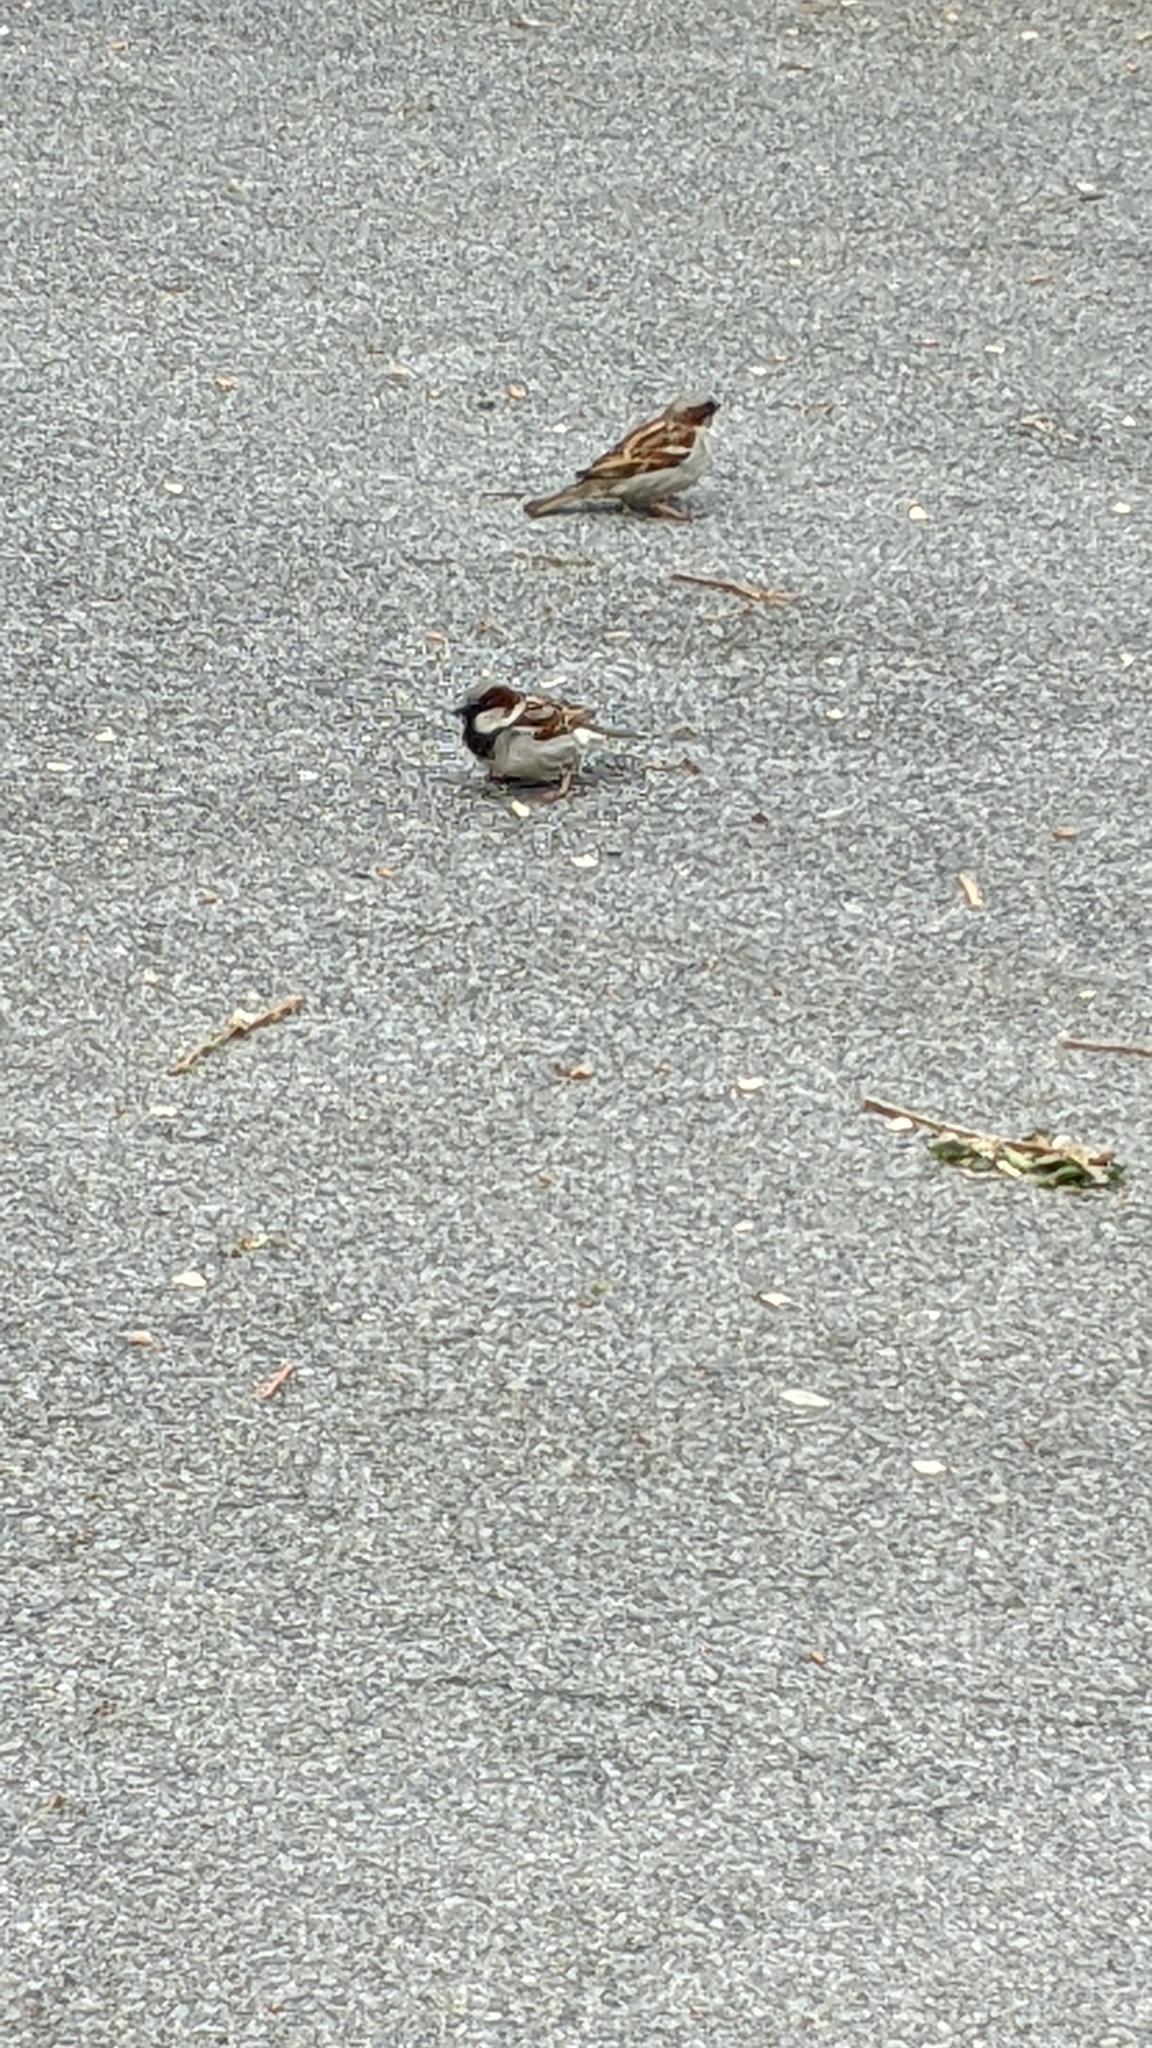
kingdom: Animalia
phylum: Chordata
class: Aves
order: Passeriformes
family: Passeridae
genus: Passer
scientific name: Passer domesticus
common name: House sparrow
